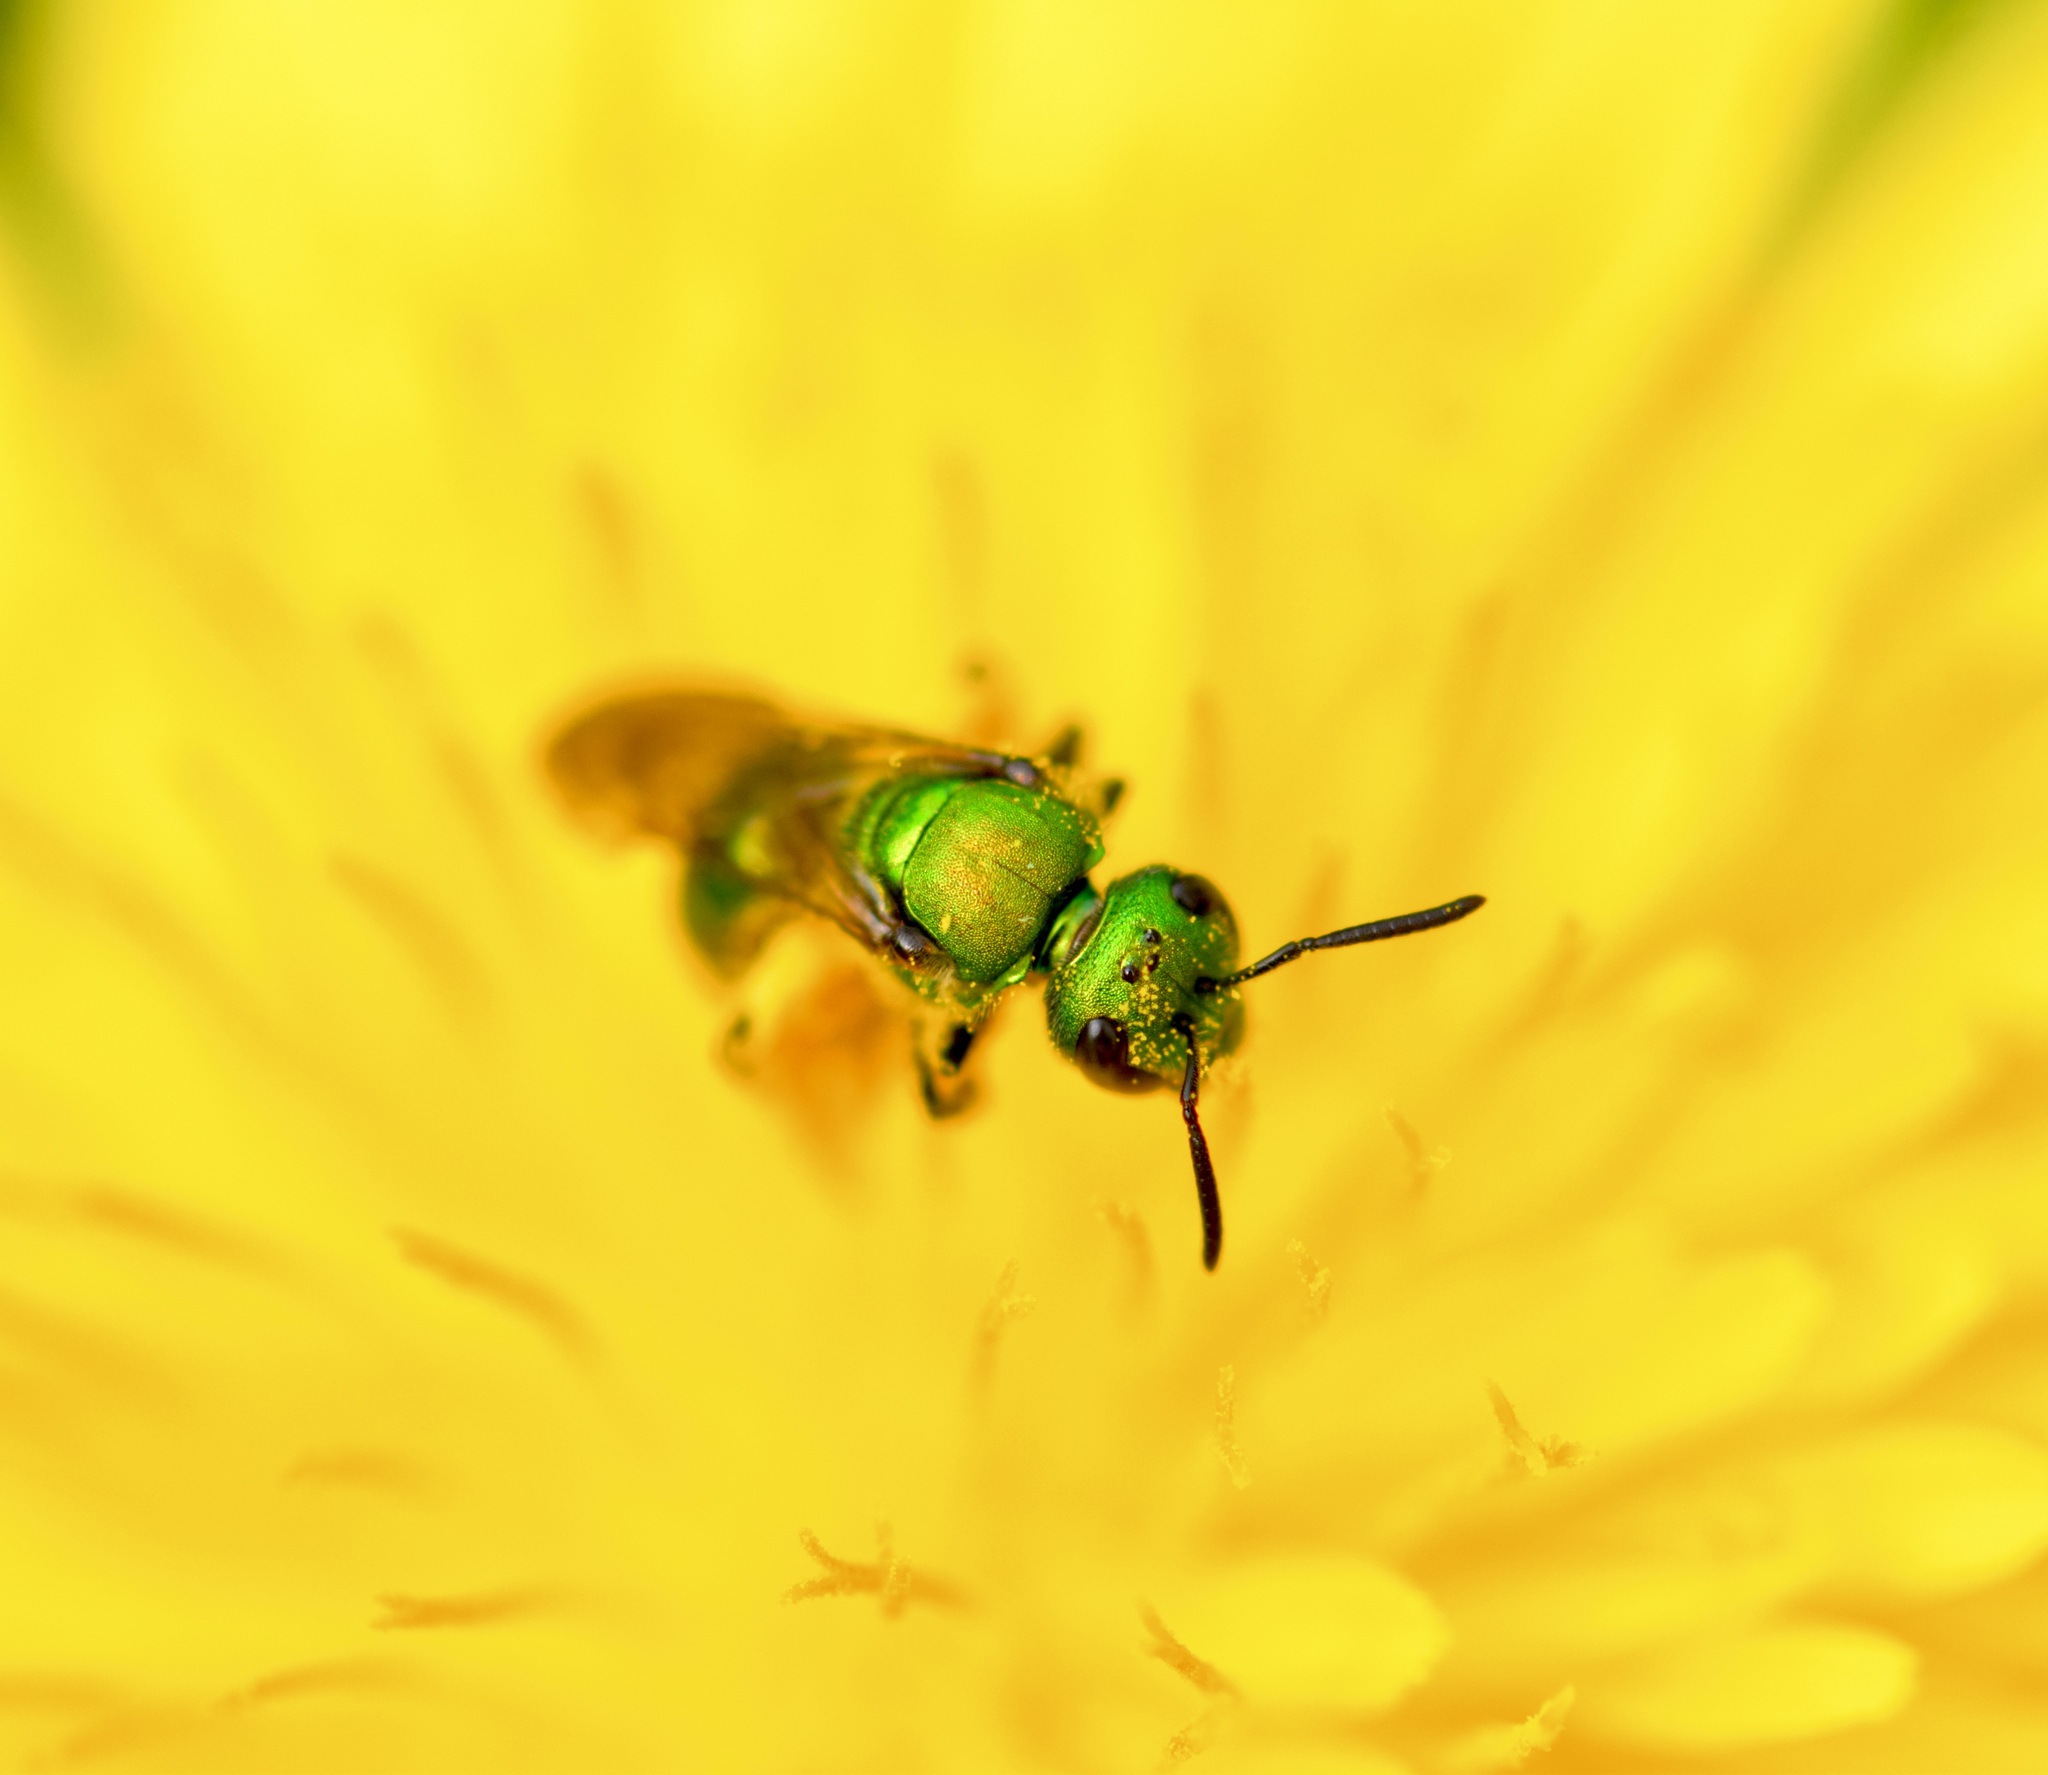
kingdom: Animalia
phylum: Arthropoda
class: Insecta
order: Hymenoptera
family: Halictidae
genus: Augochlora
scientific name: Augochlora pura
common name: Pure green sweat bee
